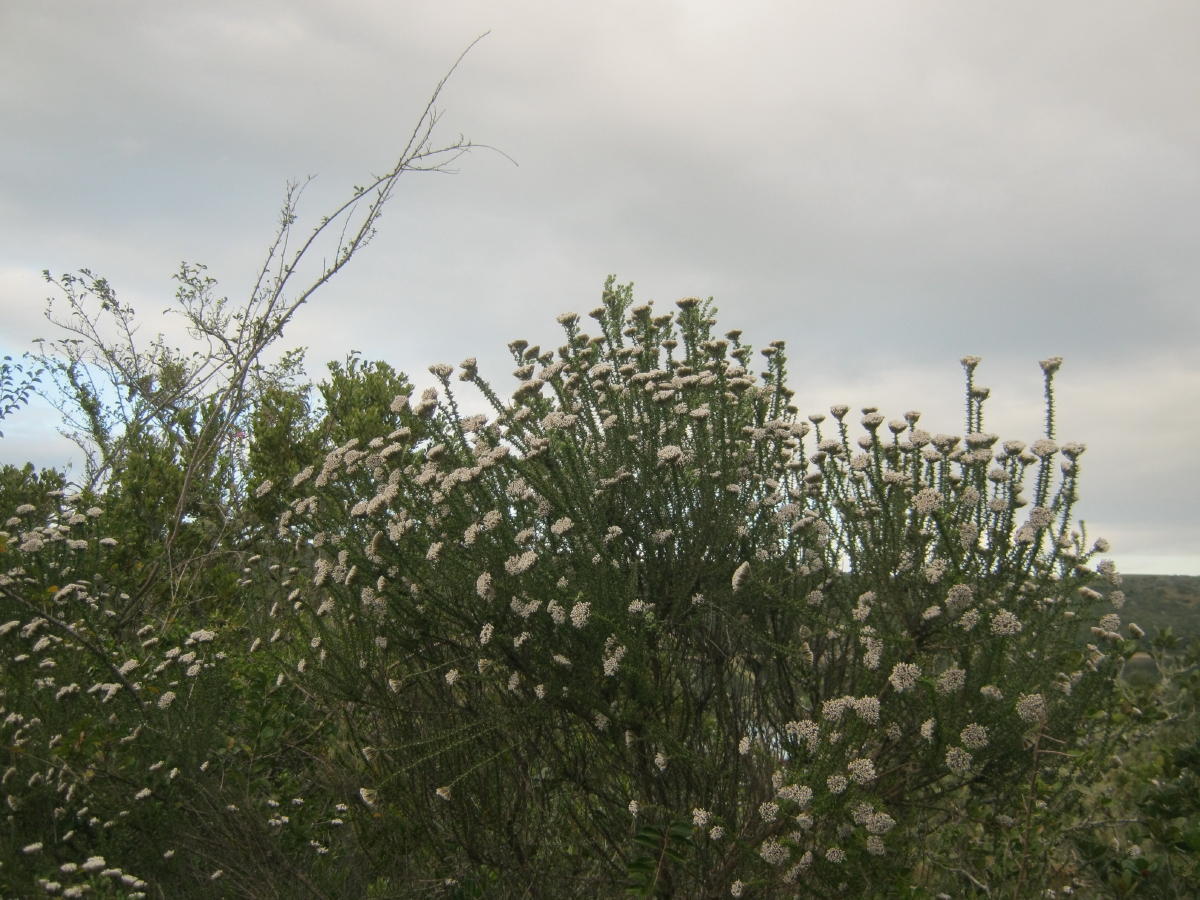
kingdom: Plantae
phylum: Tracheophyta
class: Magnoliopsida
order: Asterales
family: Asteraceae
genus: Metalasia
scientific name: Metalasia muricata
